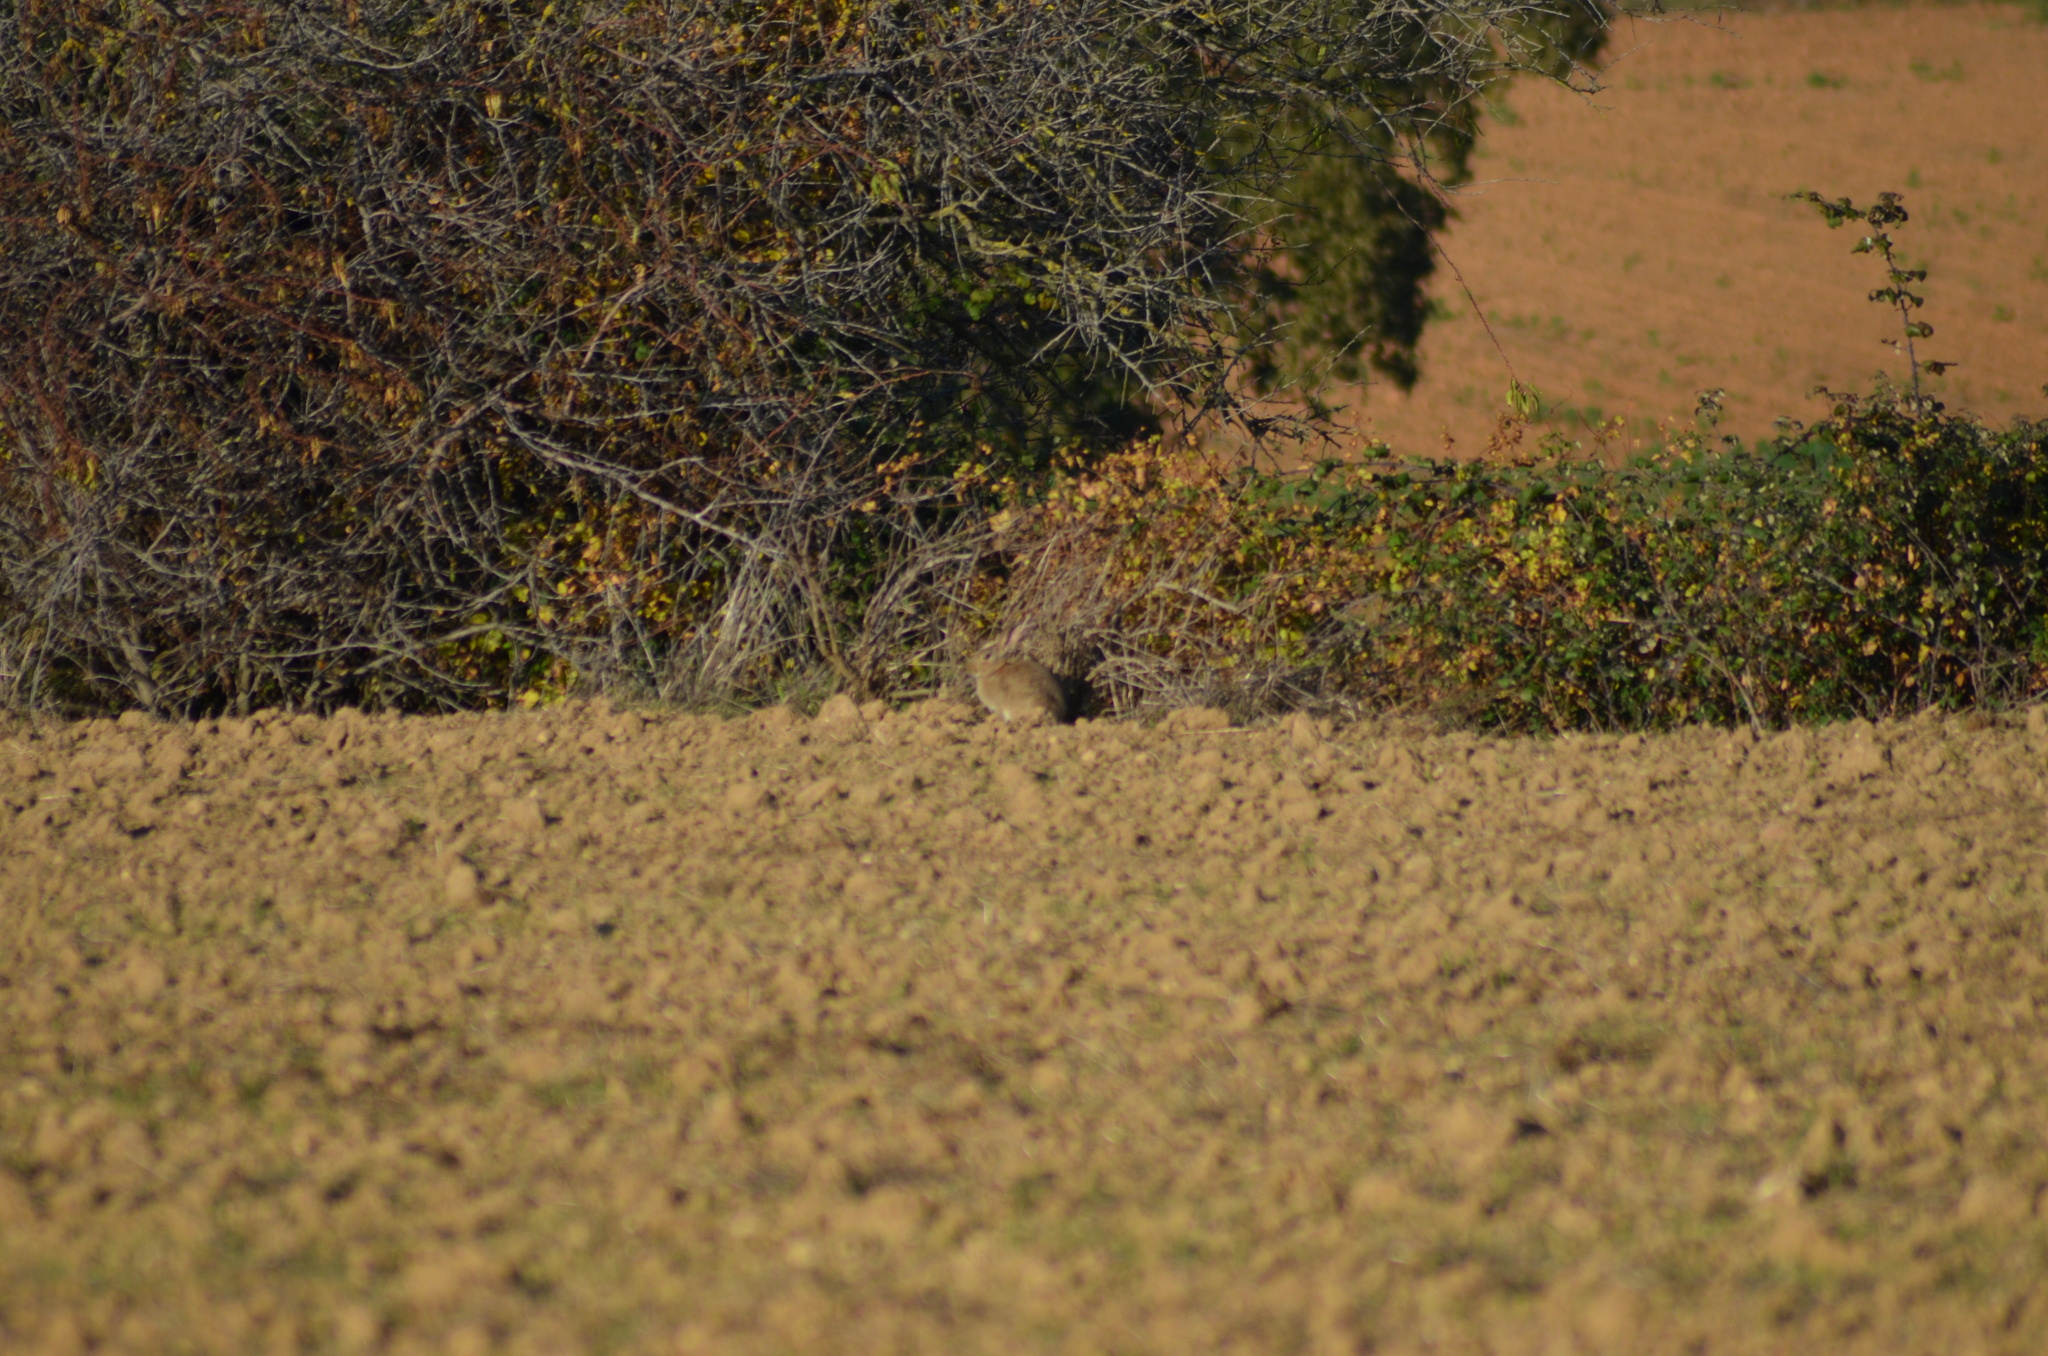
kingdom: Animalia
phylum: Chordata
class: Mammalia
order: Lagomorpha
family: Leporidae
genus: Oryctolagus
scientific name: Oryctolagus cuniculus
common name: European rabbit
